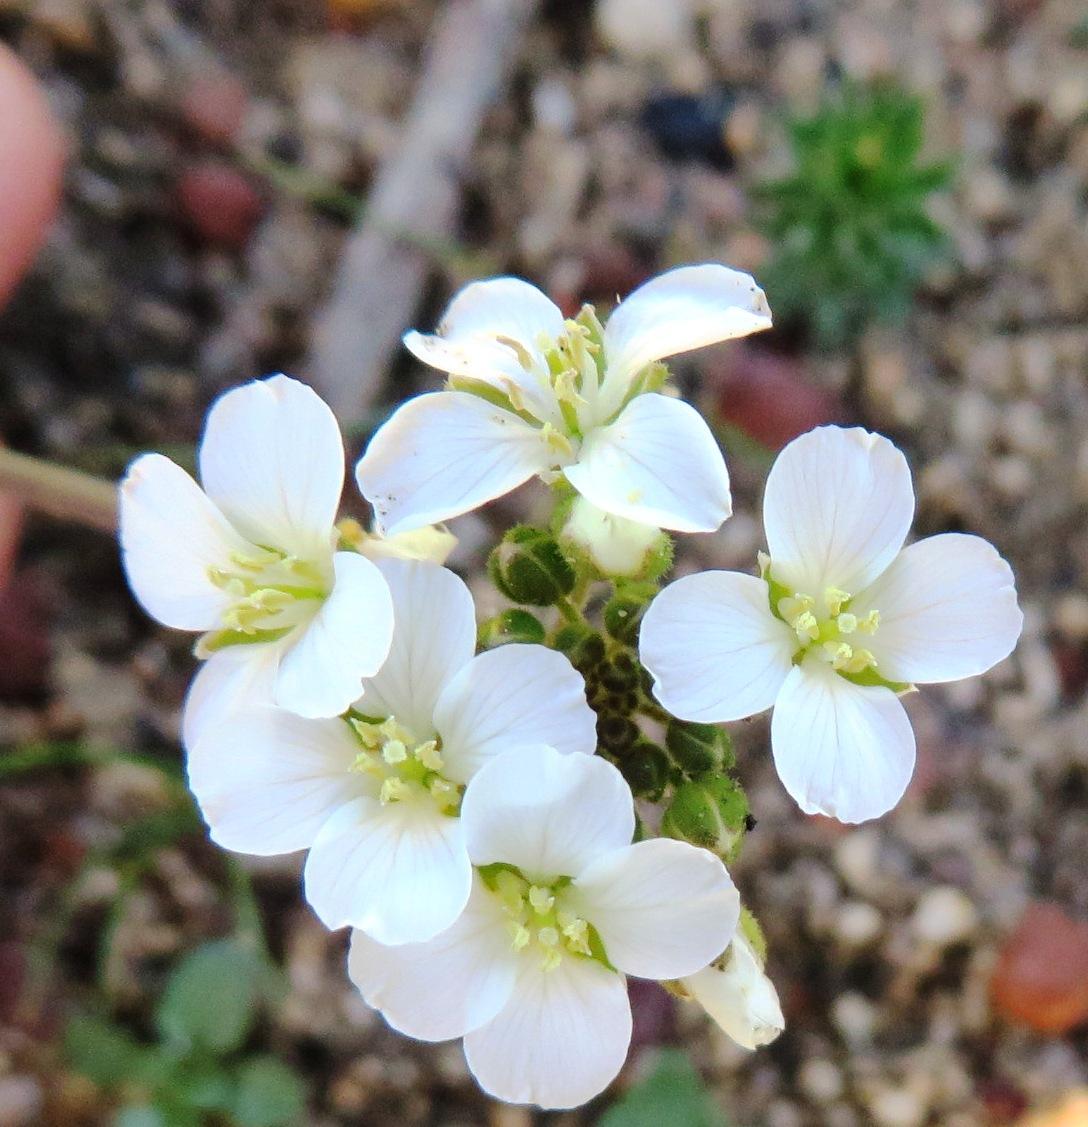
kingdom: Plantae
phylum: Tracheophyta
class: Magnoliopsida
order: Brassicales
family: Brassicaceae
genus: Heliophila
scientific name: Heliophila concatenata
